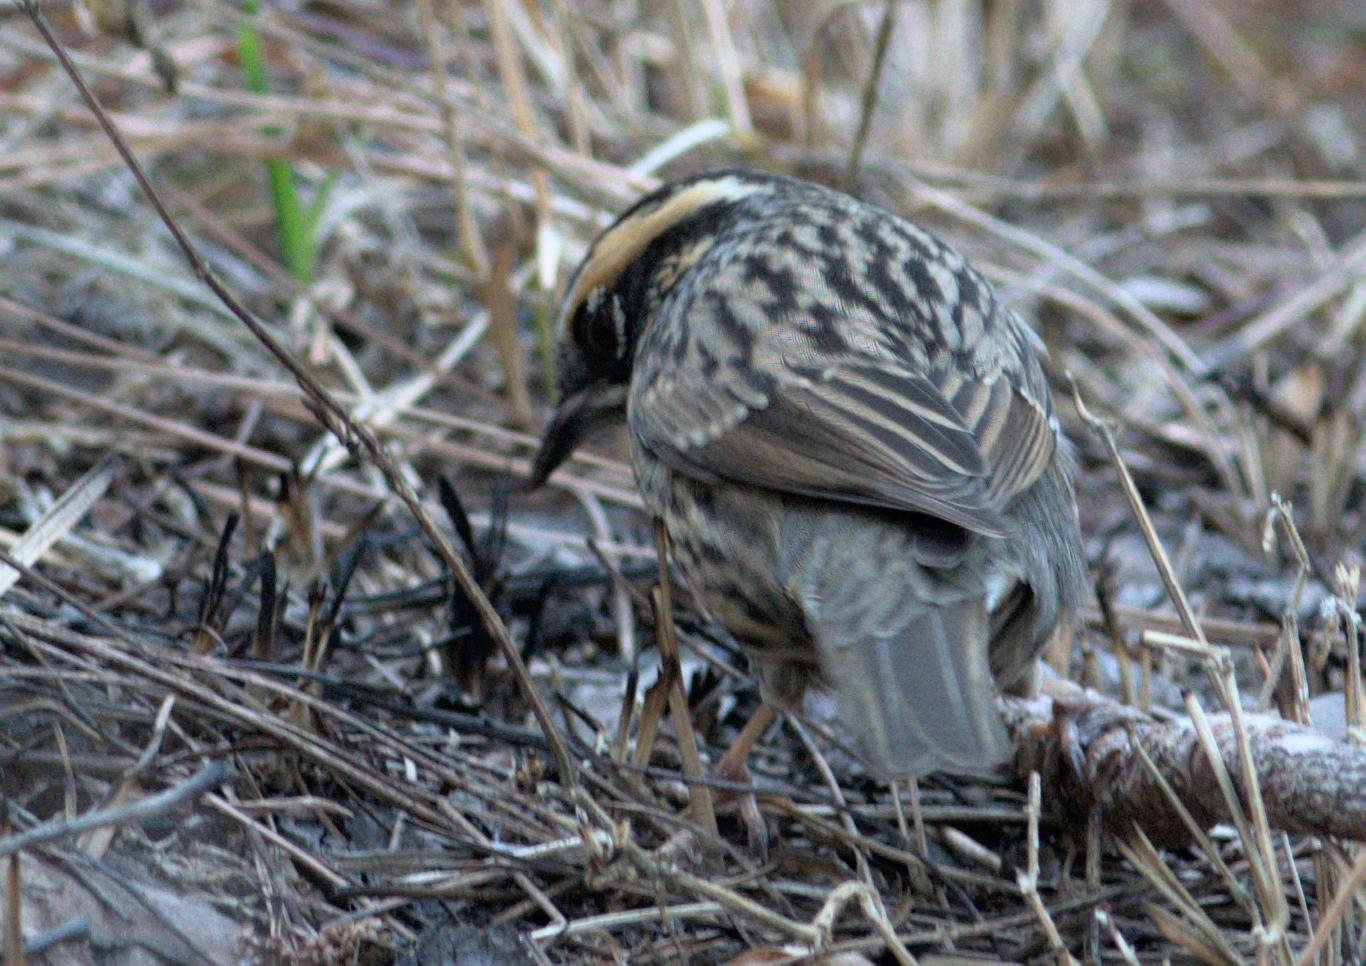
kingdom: Animalia
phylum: Chordata
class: Aves
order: Passeriformes
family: Prunellidae
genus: Prunella
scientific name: Prunella strophiata
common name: Rufous-breasted accentor
